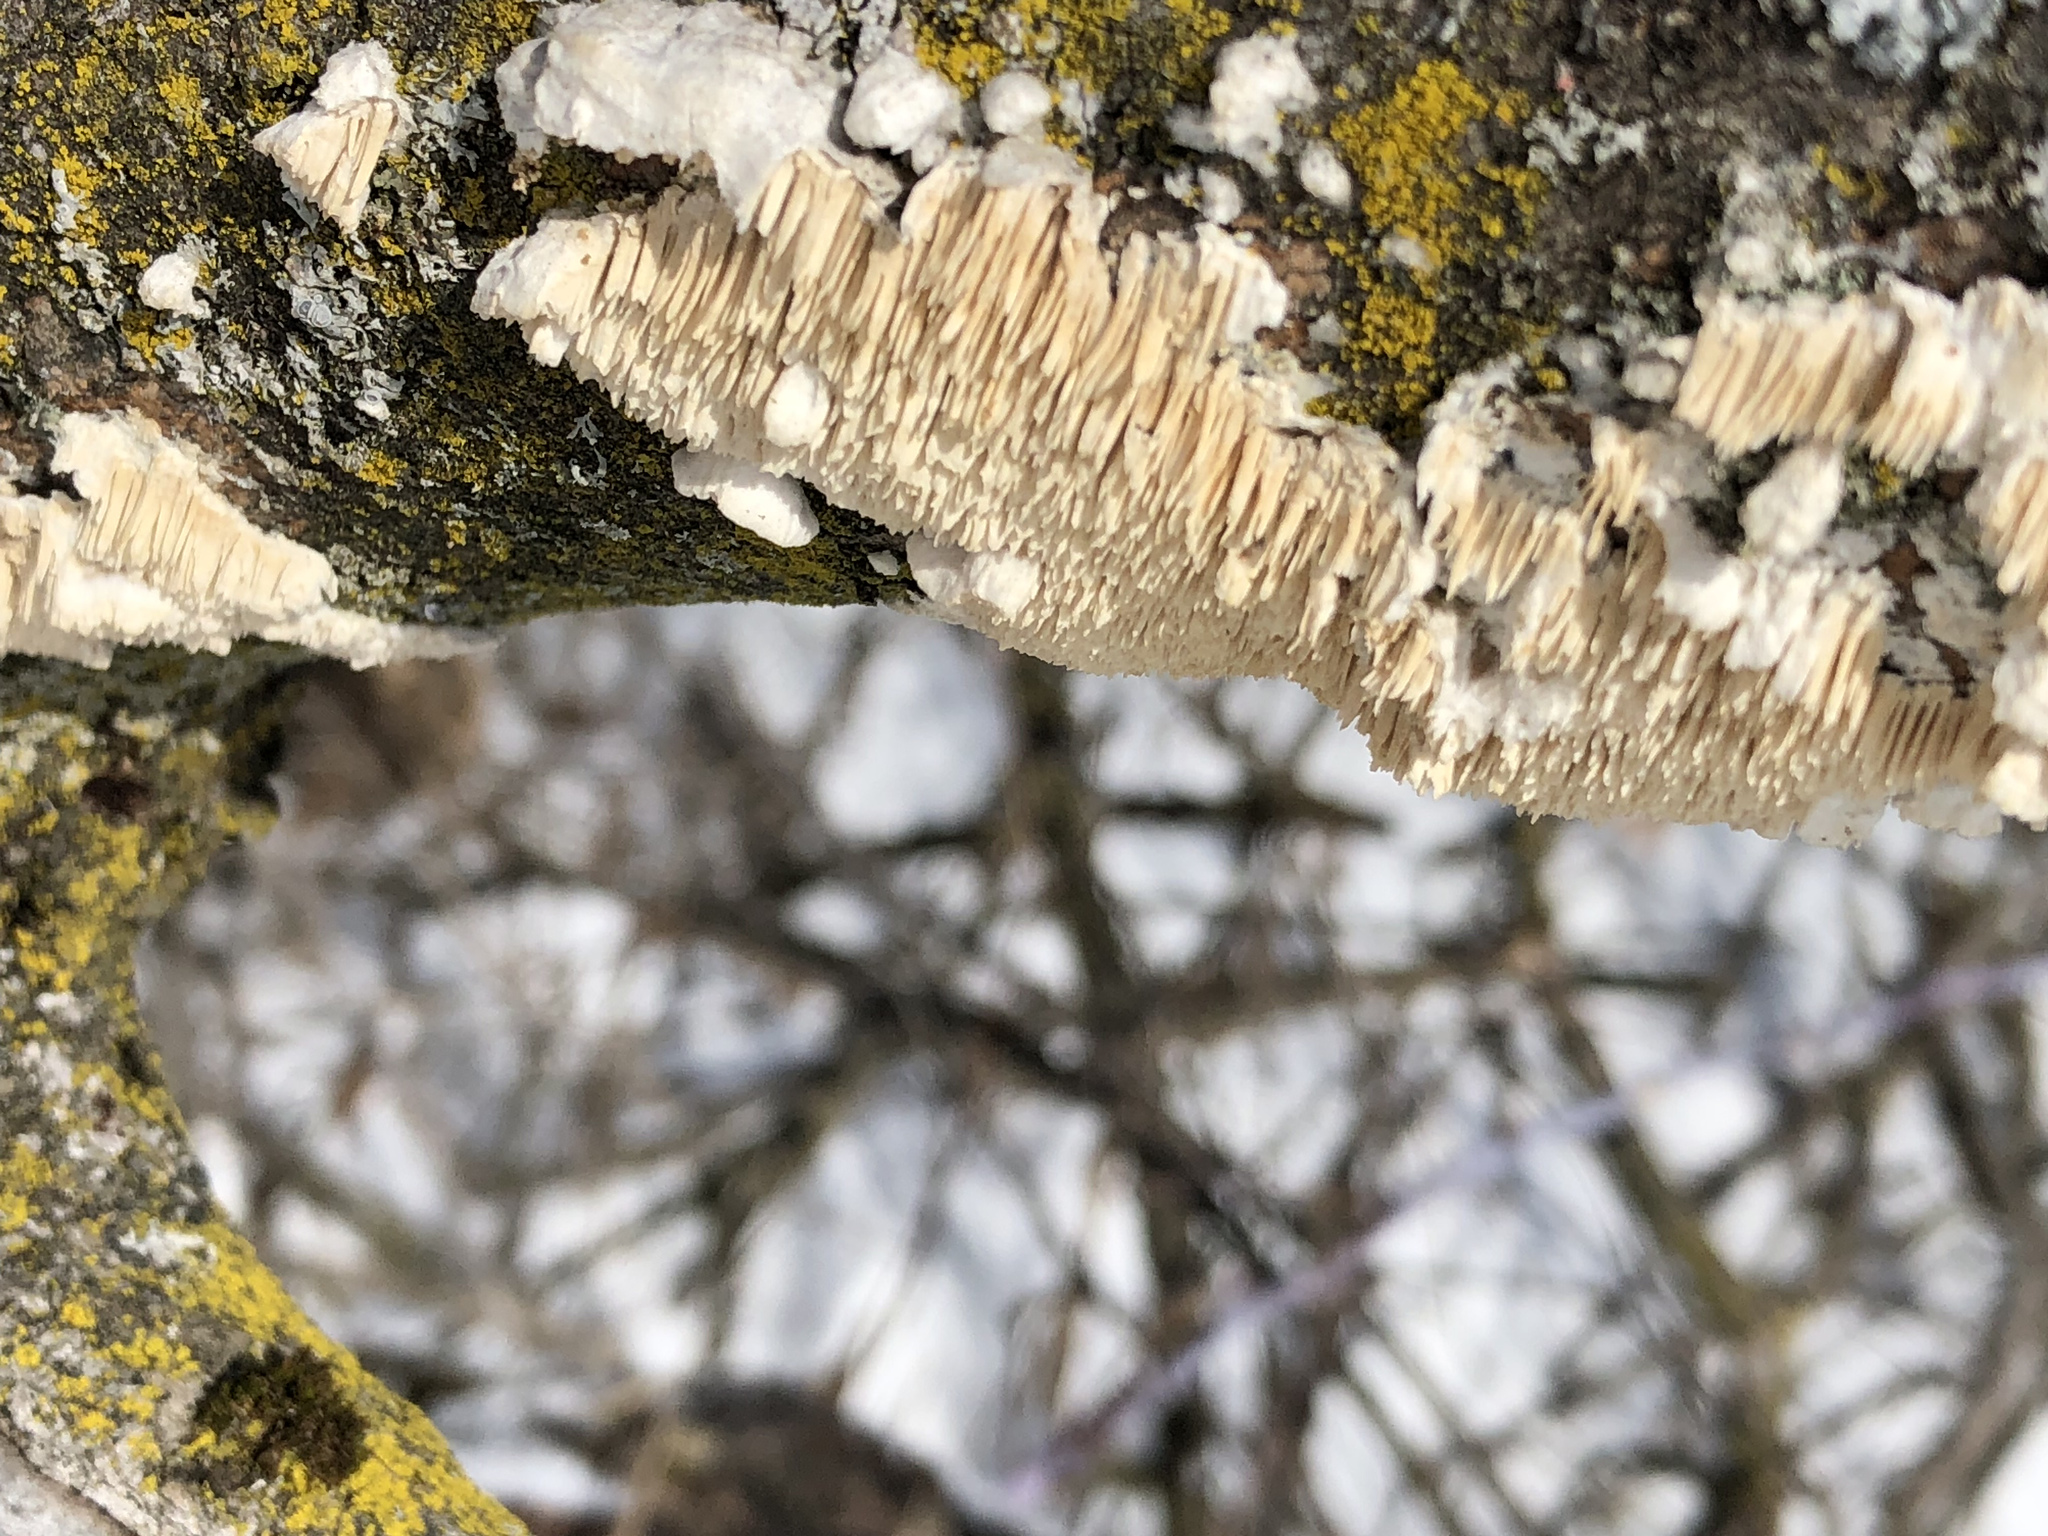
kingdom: Fungi
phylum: Basidiomycota
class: Agaricomycetes
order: Polyporales
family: Irpicaceae
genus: Irpex
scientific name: Irpex lacteus
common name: Milk-white toothed polypore
